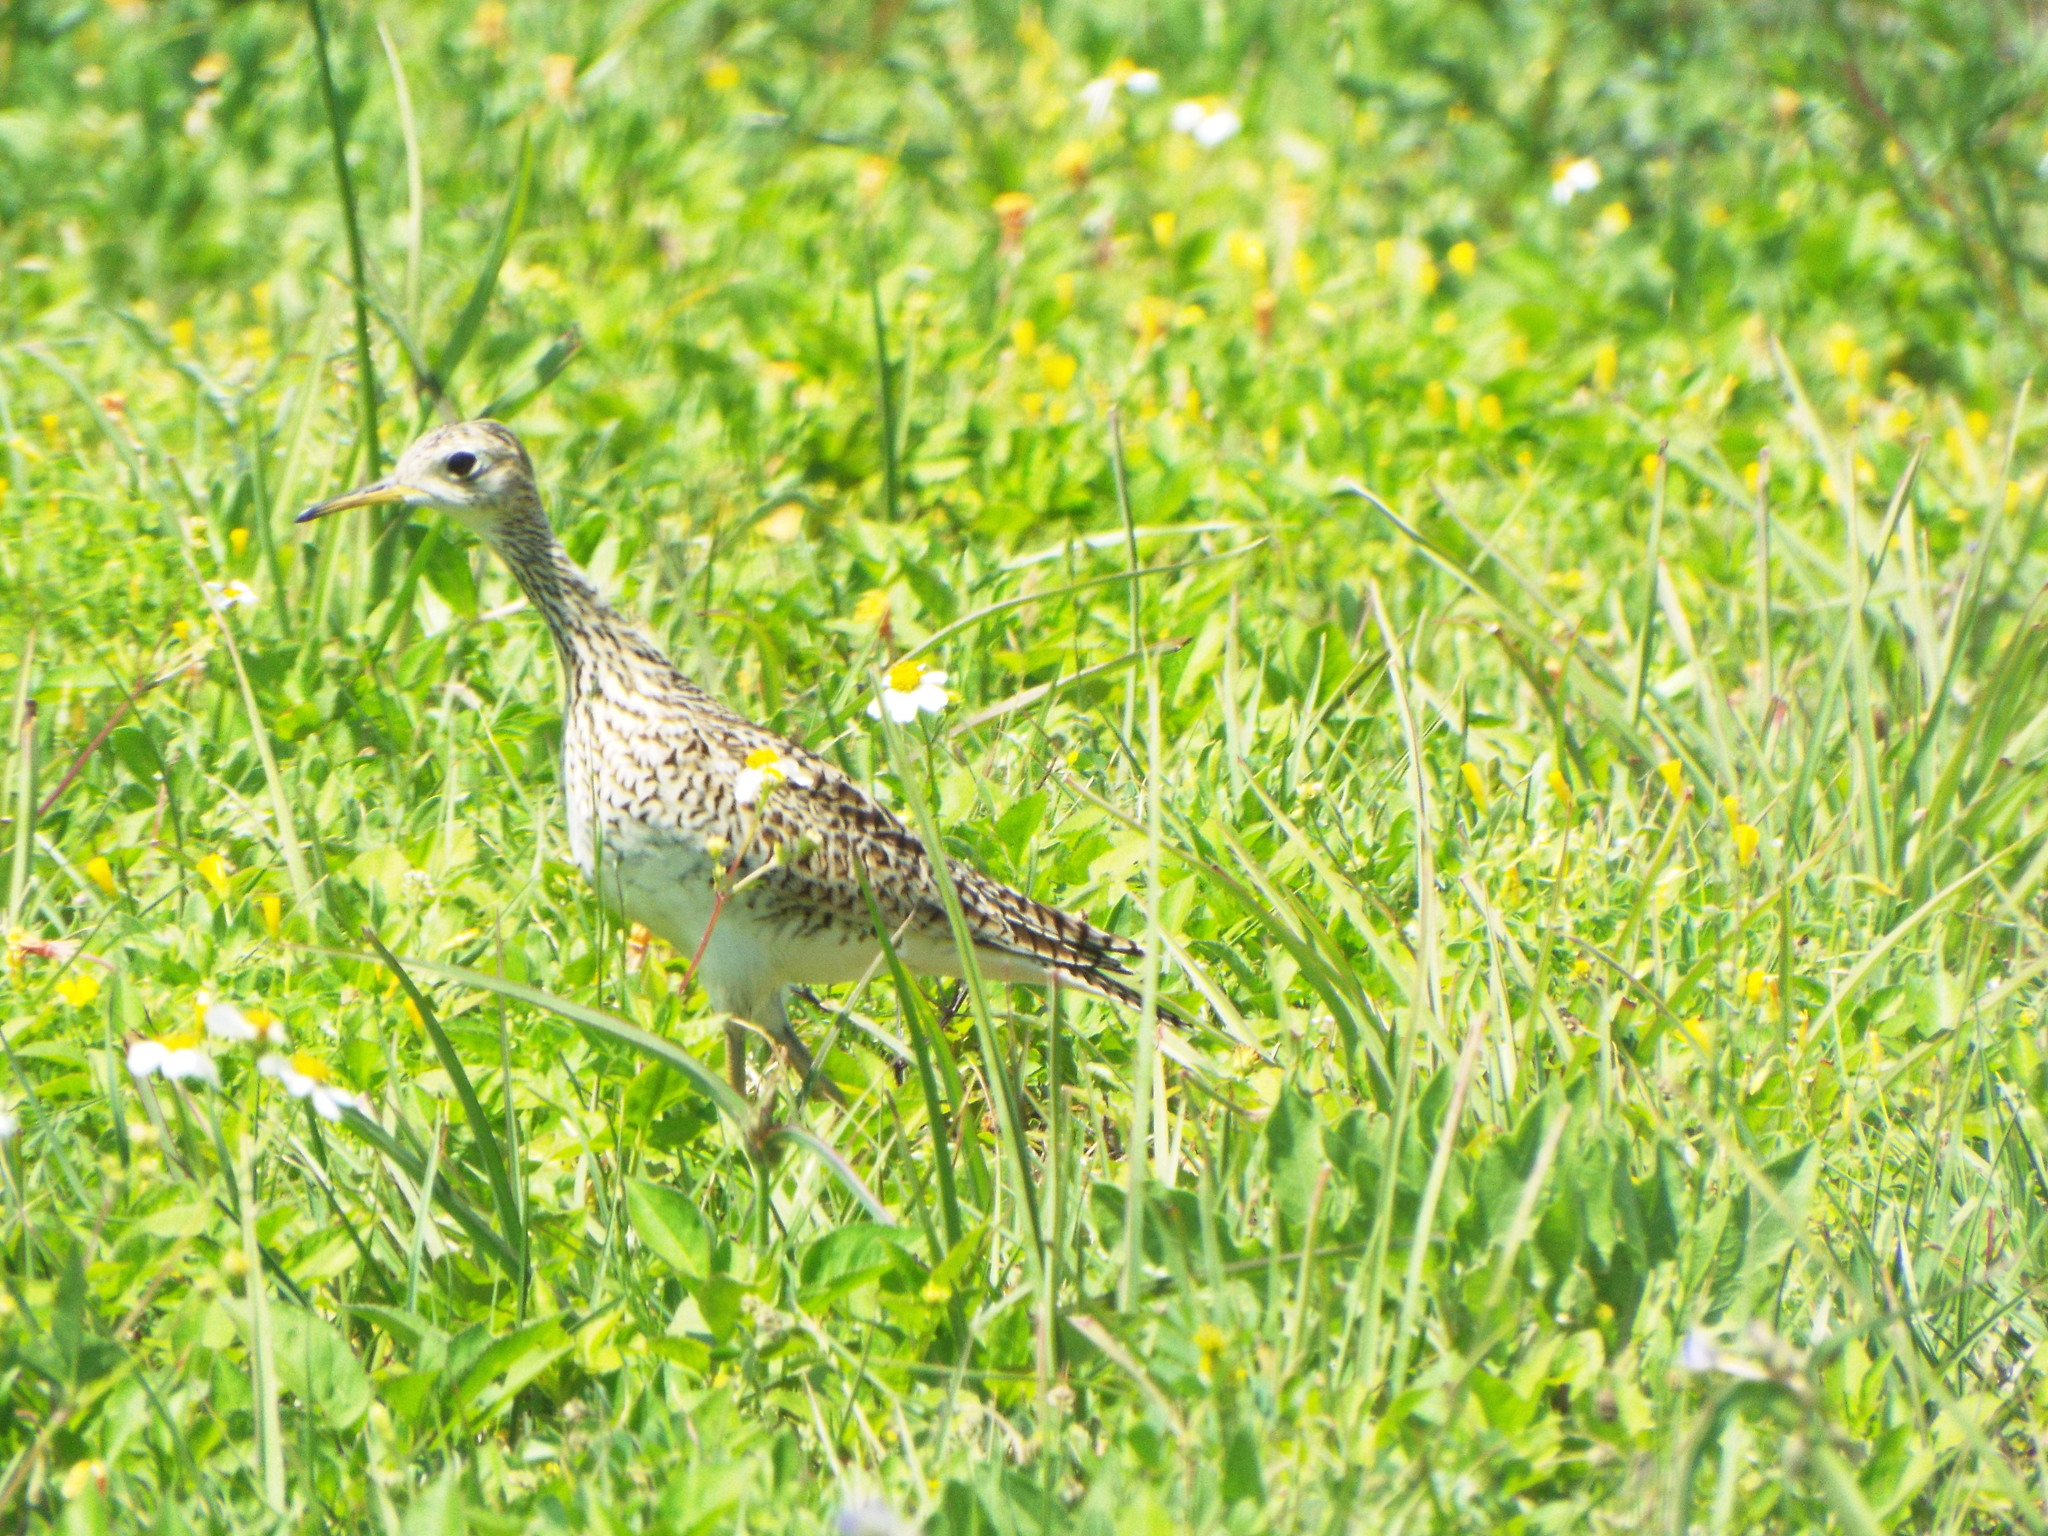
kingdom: Animalia
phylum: Chordata
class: Aves
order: Charadriiformes
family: Scolopacidae
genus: Bartramia
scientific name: Bartramia longicauda
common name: Upland sandpiper
